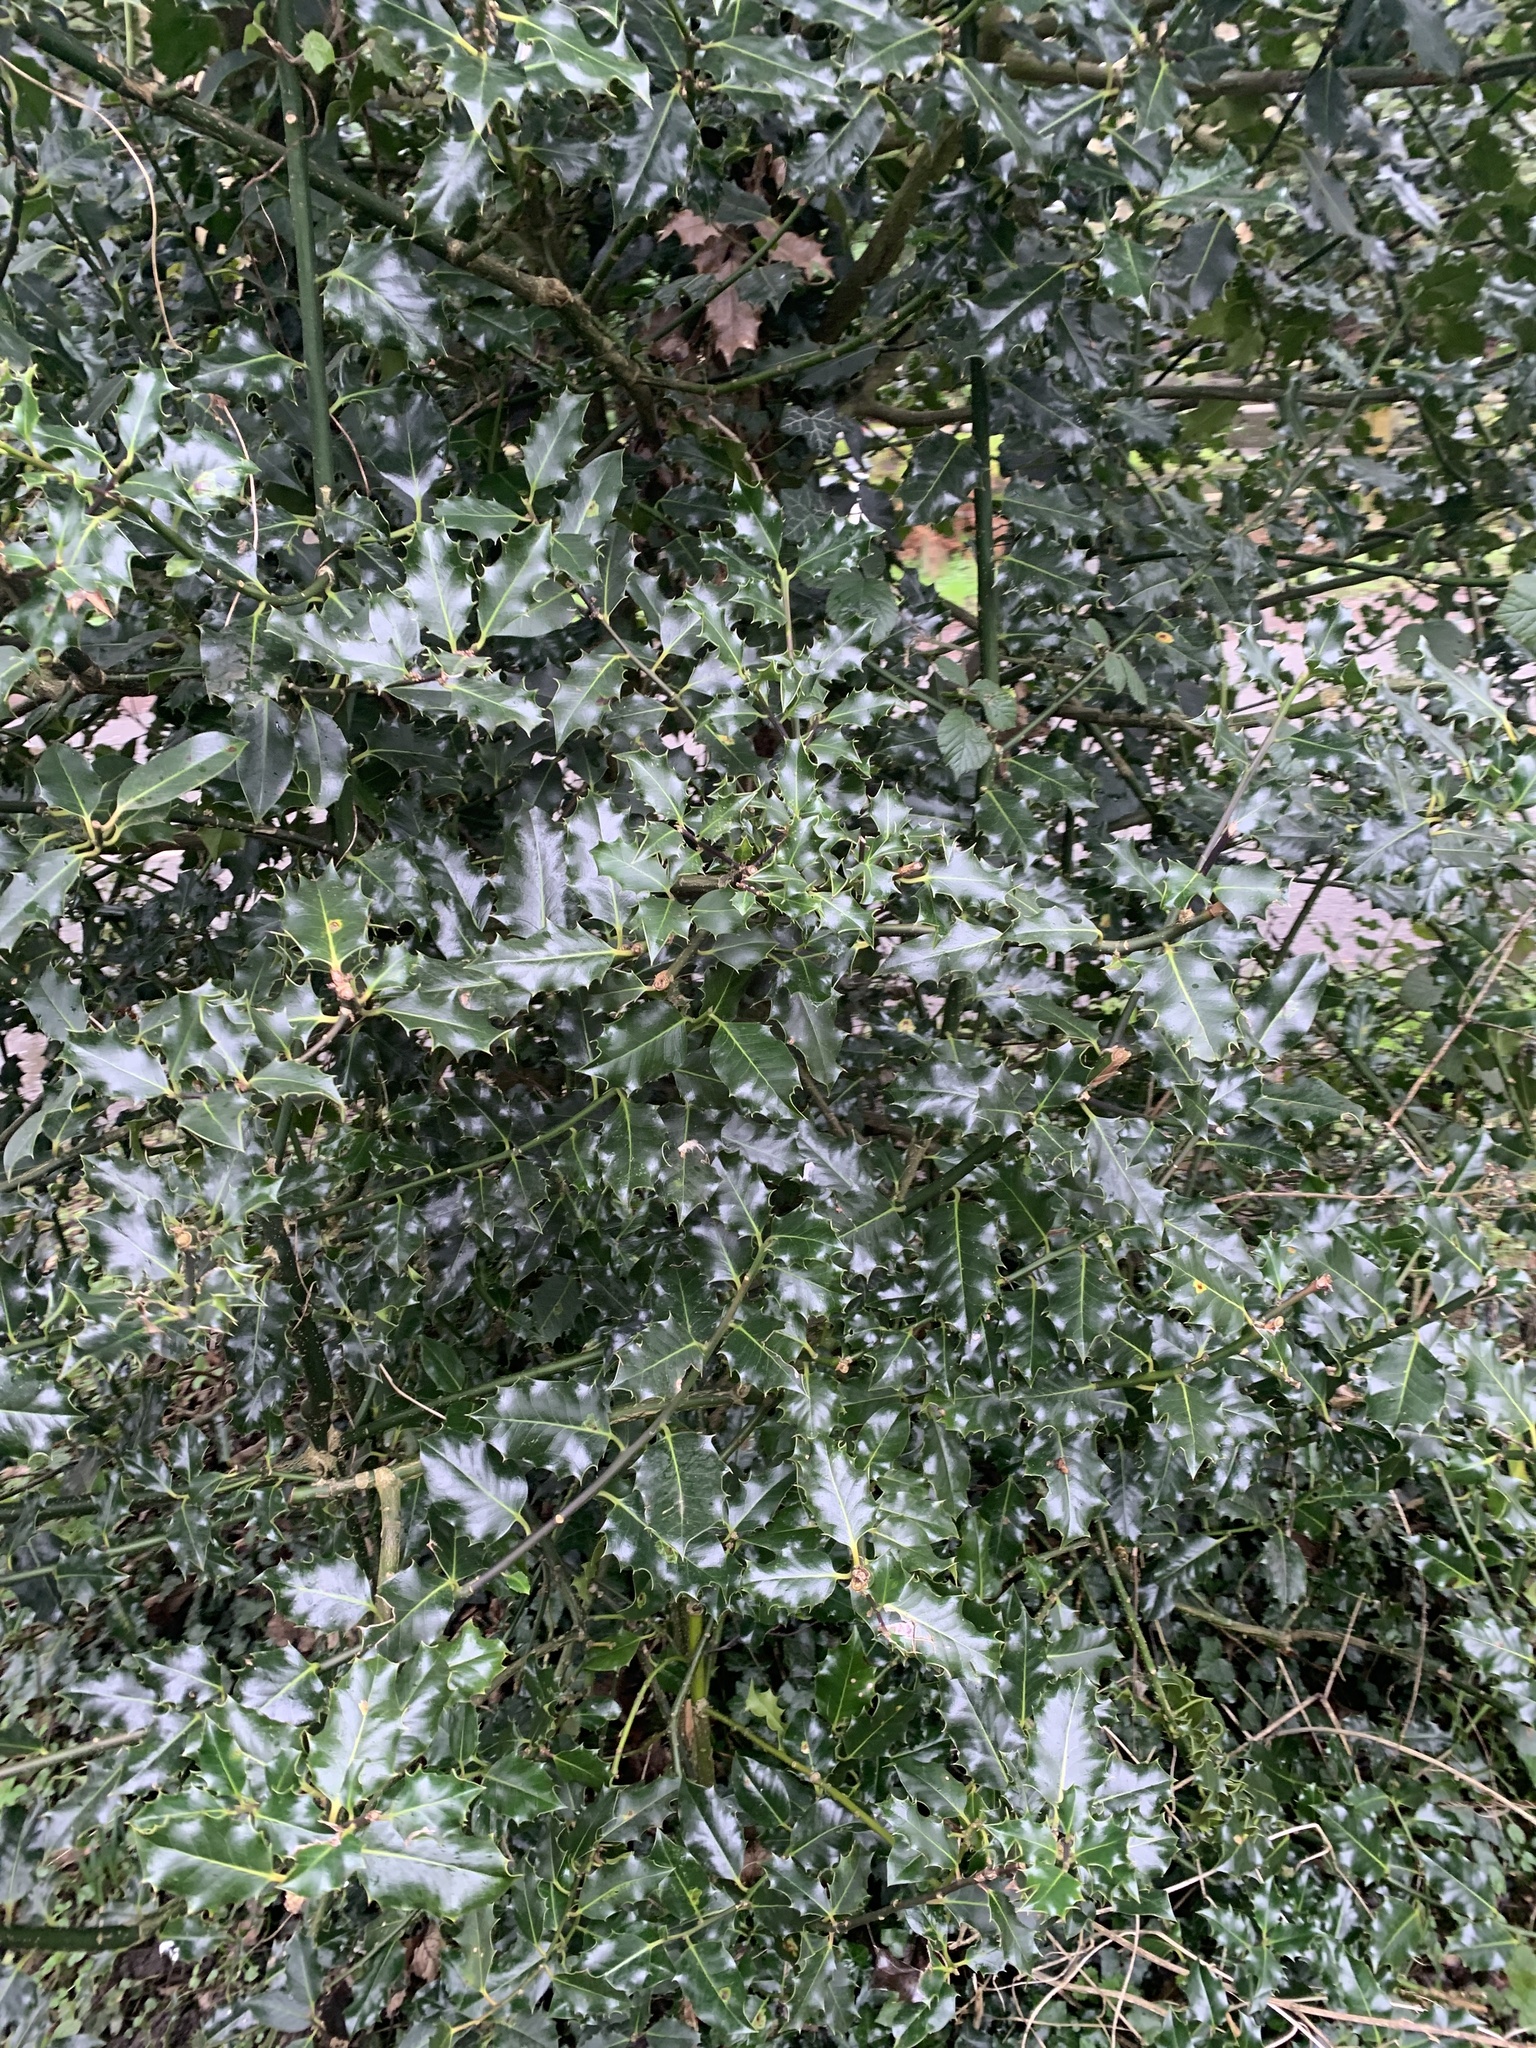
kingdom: Plantae
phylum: Tracheophyta
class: Magnoliopsida
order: Aquifoliales
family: Aquifoliaceae
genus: Ilex
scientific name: Ilex aquifolium
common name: English holly
